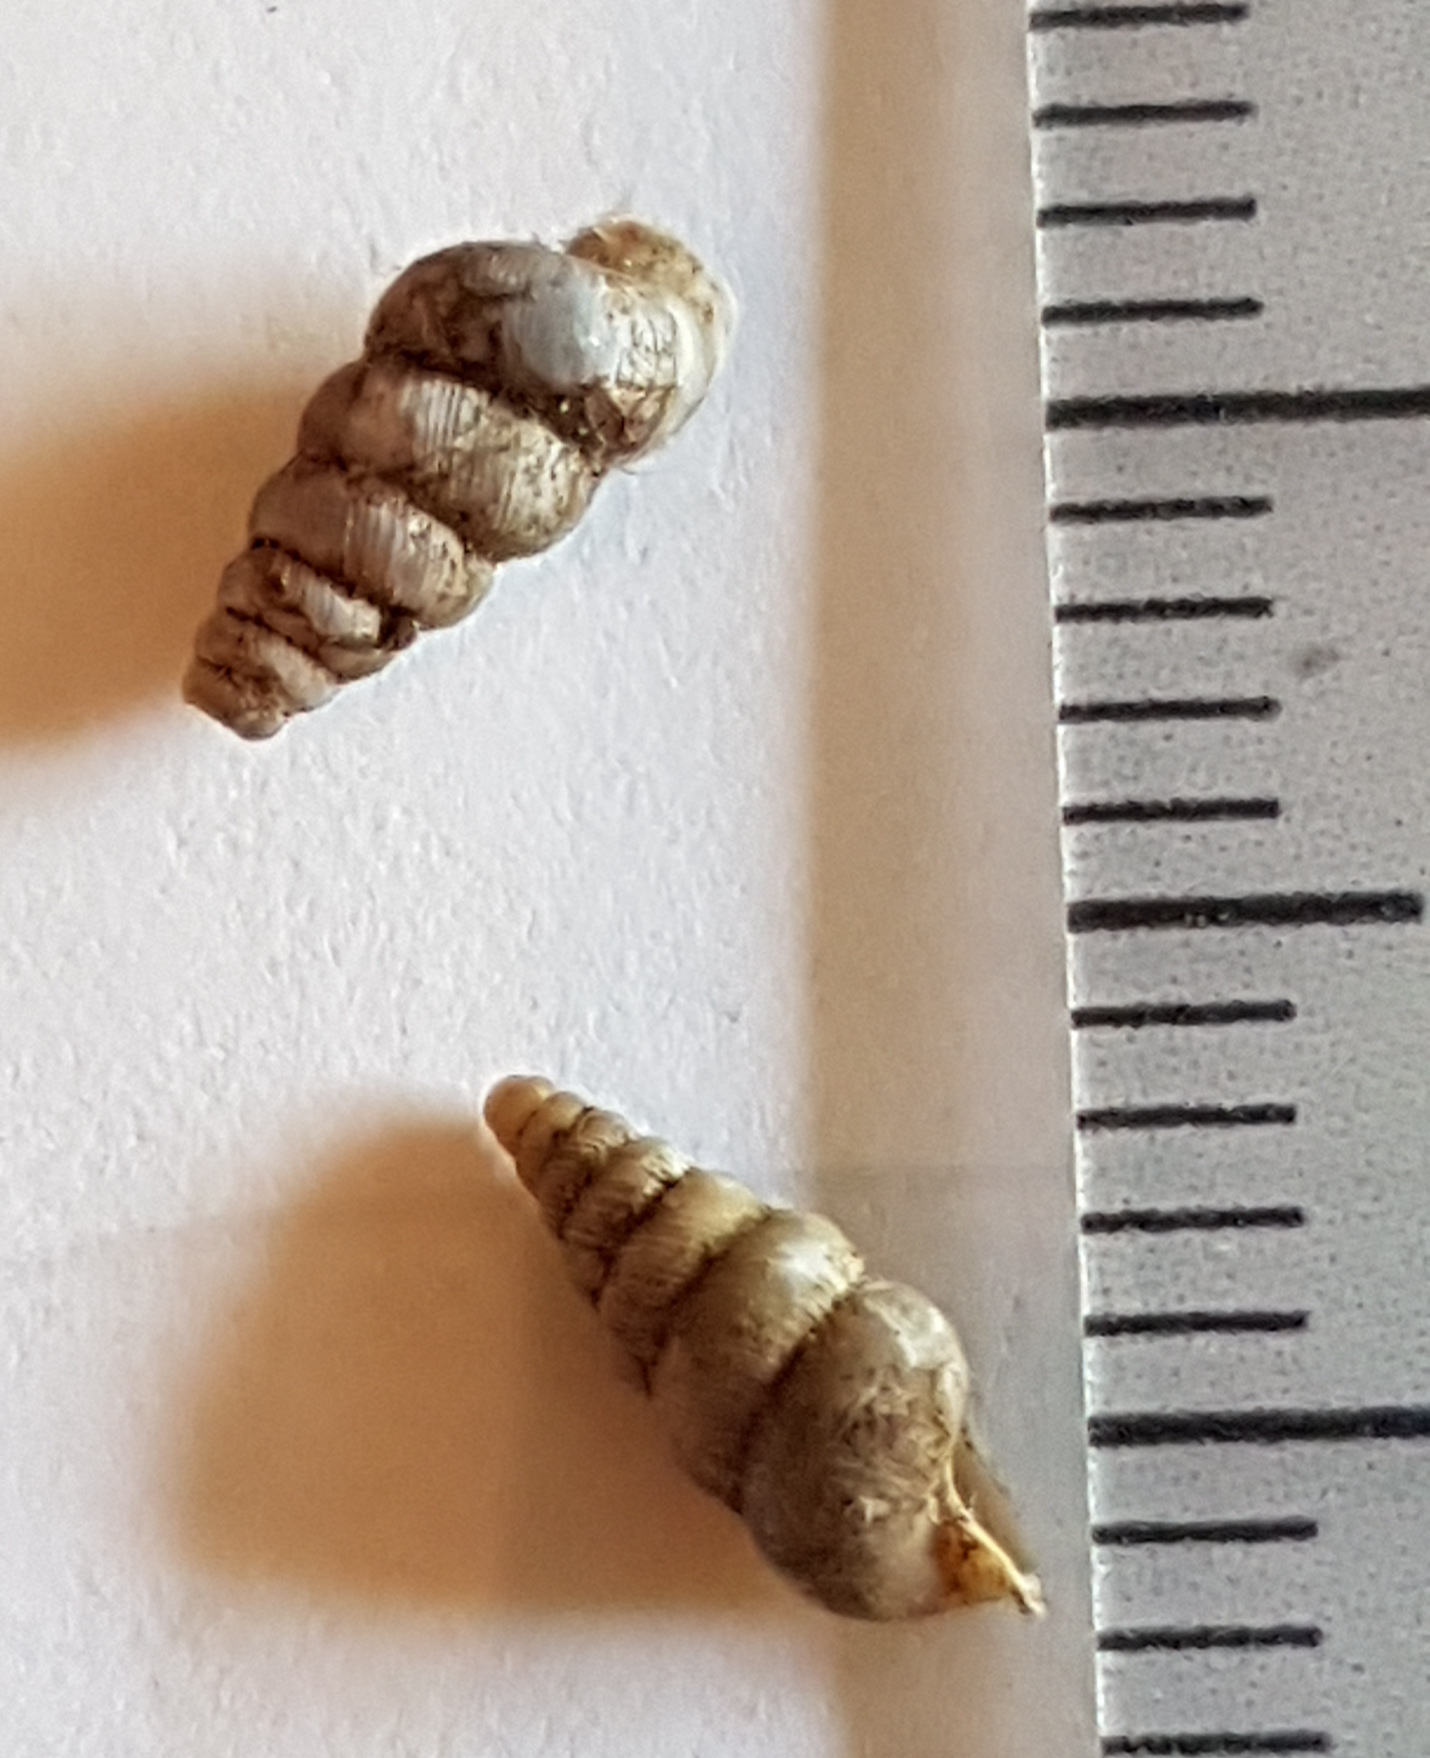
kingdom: Animalia
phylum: Mollusca
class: Gastropoda
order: Architaenioglossa
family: Cochlostomatidae
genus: Cochlostoma
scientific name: Cochlostoma patulum
